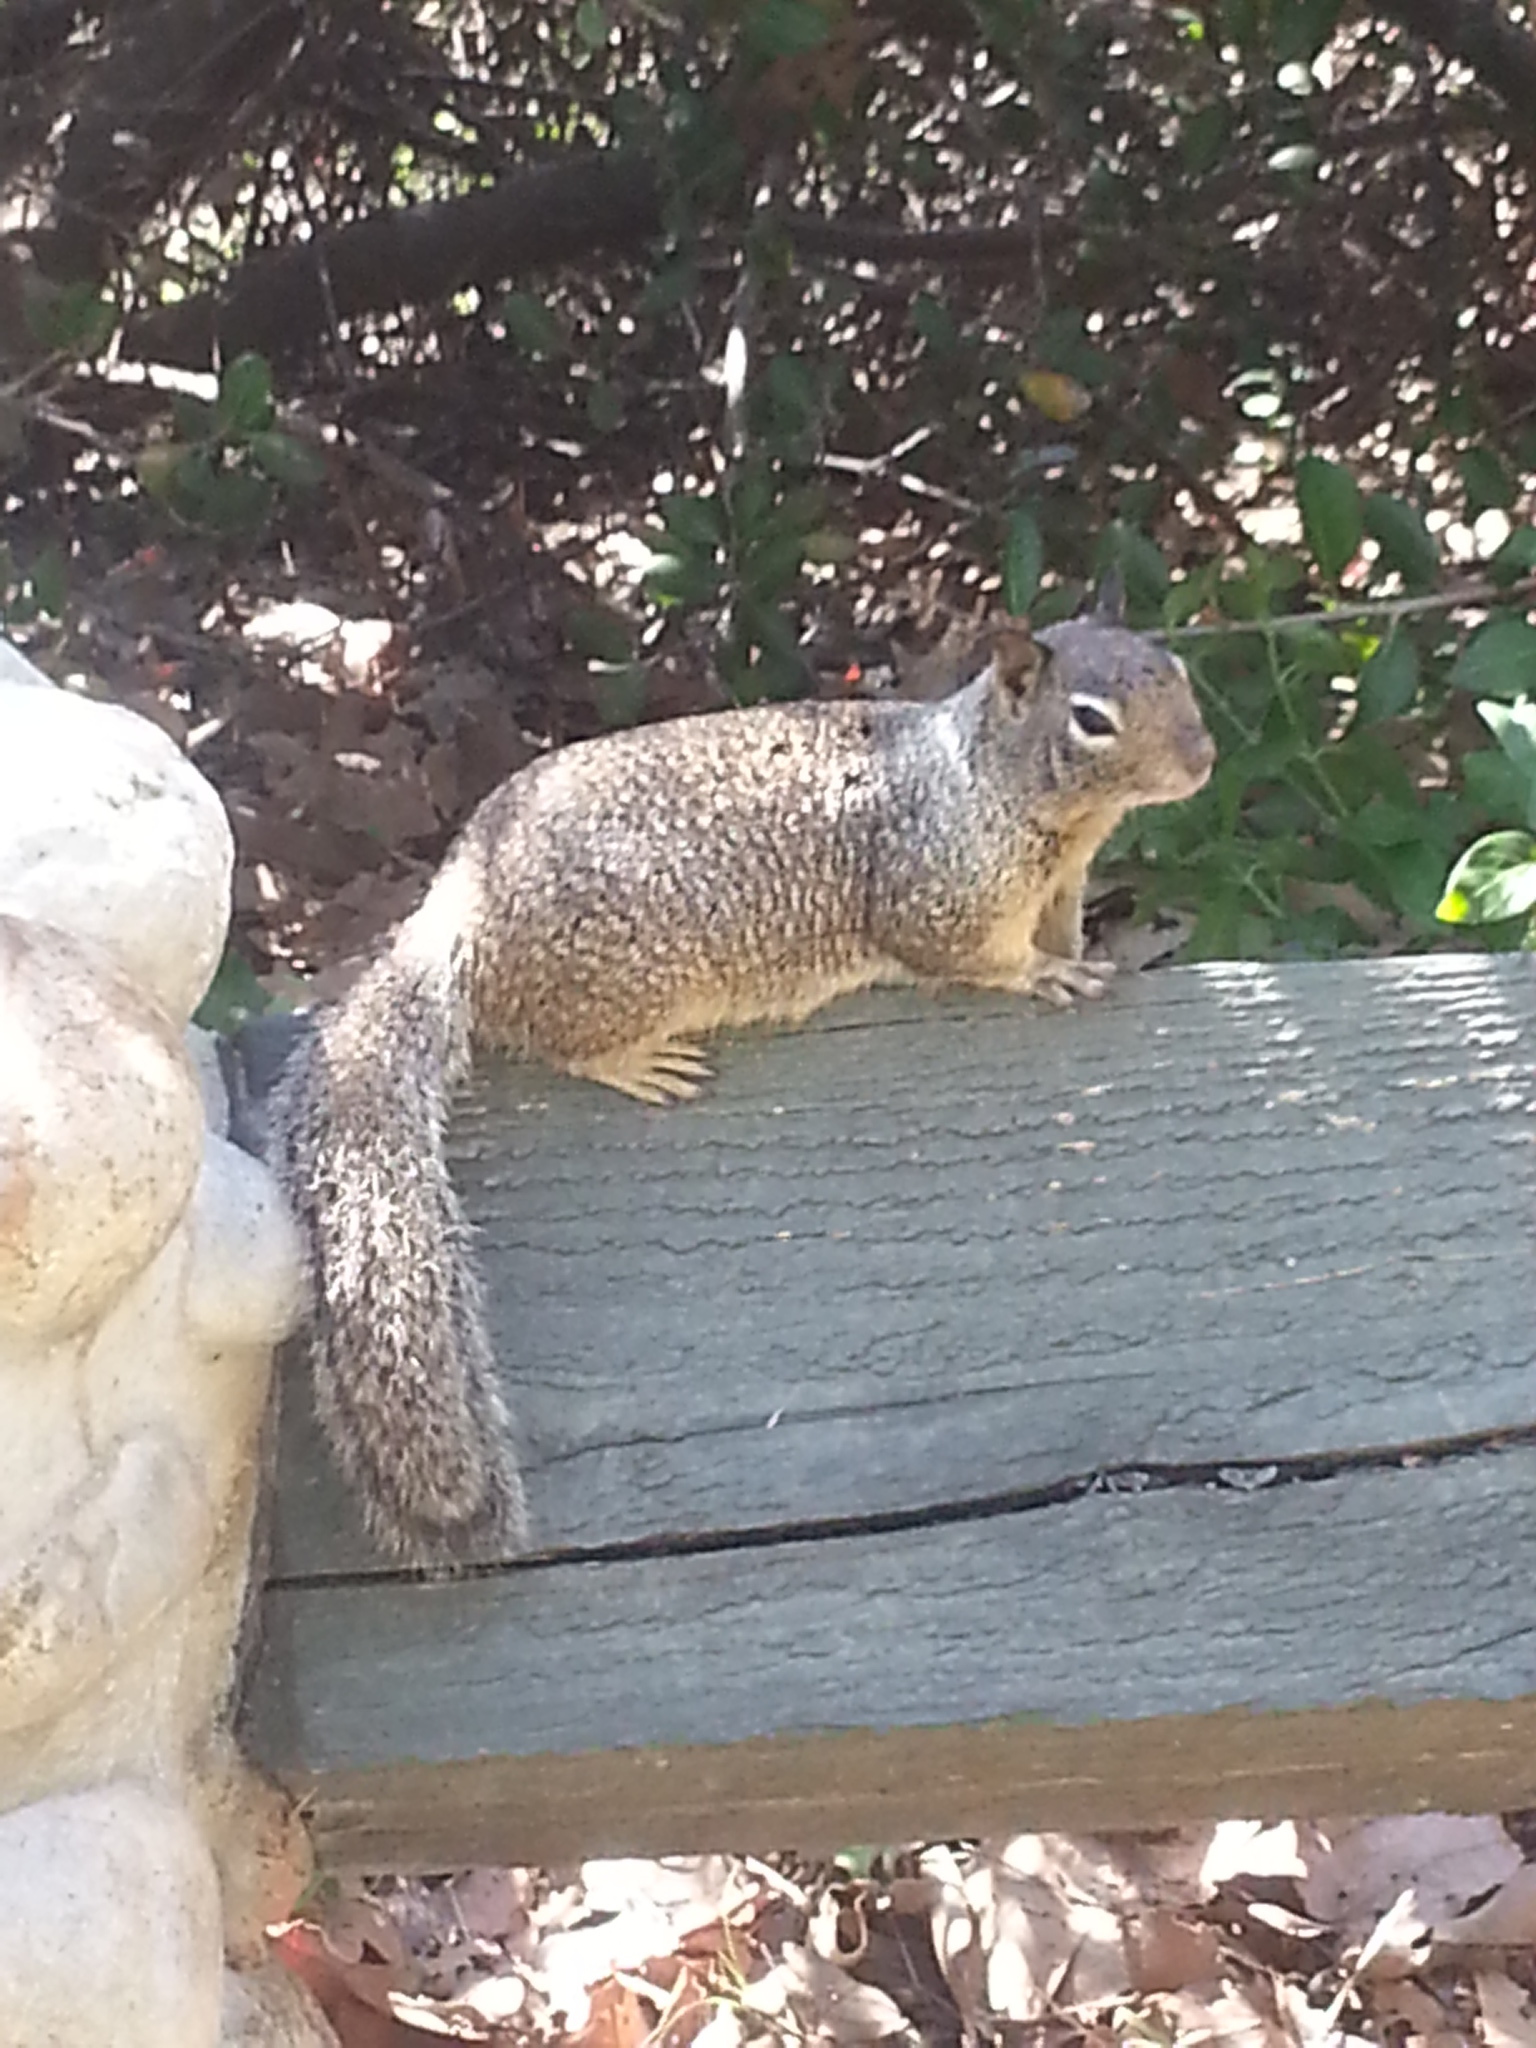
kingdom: Animalia
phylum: Chordata
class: Mammalia
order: Rodentia
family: Sciuridae
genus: Otospermophilus
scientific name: Otospermophilus beecheyi
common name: California ground squirrel
